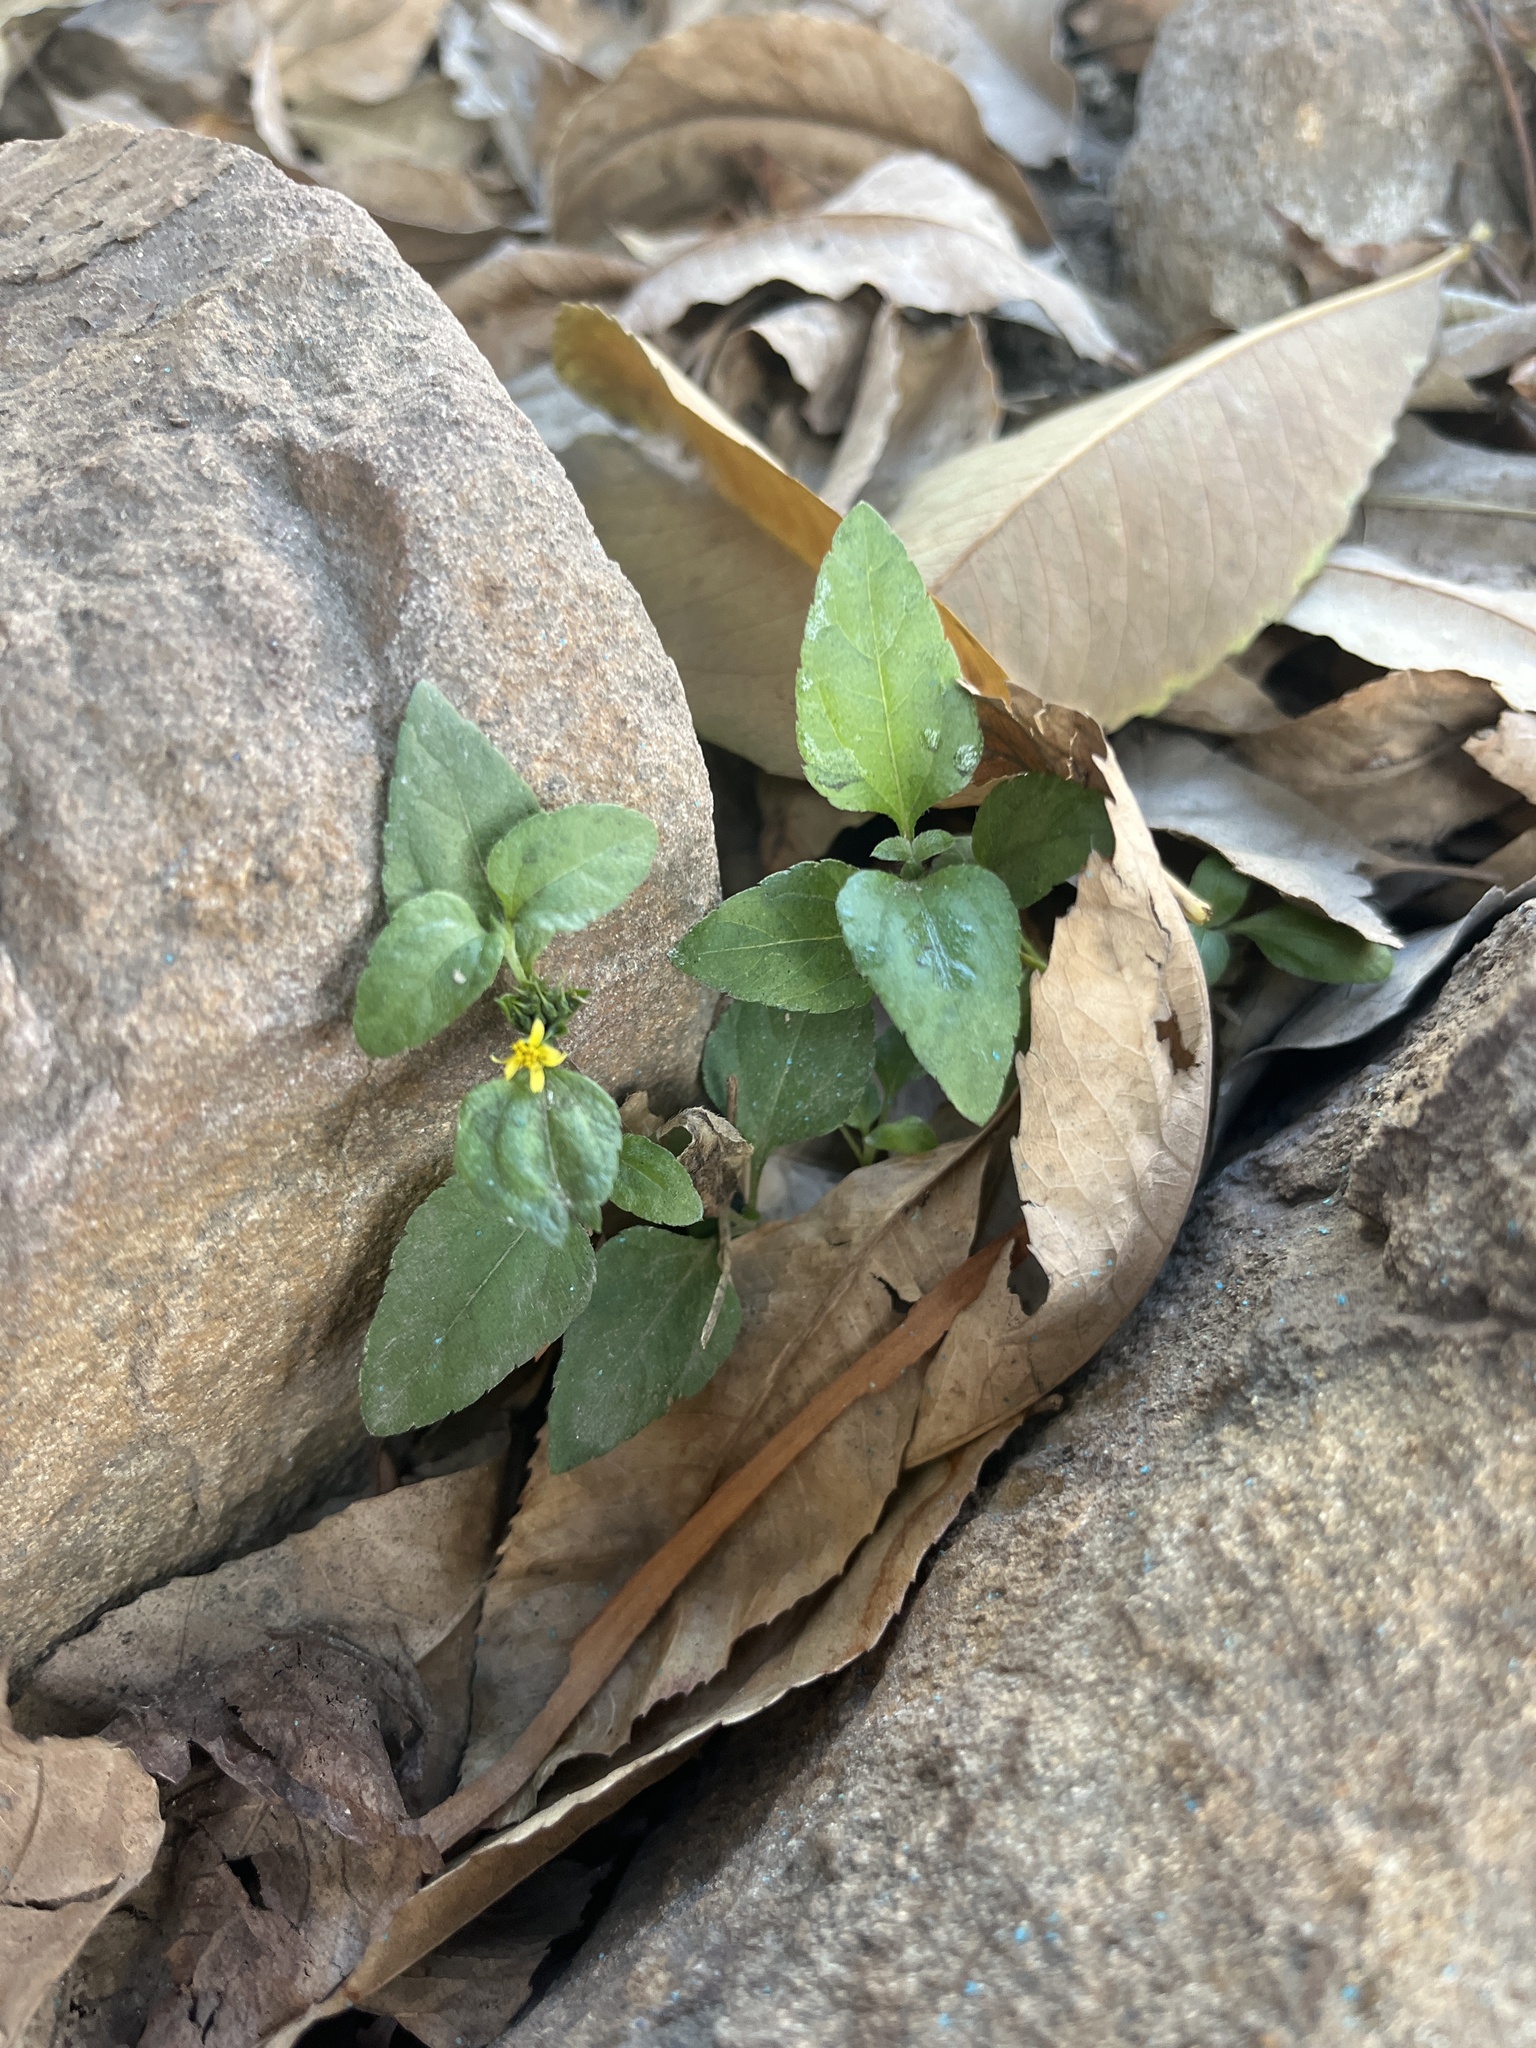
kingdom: Plantae
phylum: Tracheophyta
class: Magnoliopsida
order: Asterales
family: Asteraceae
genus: Calyptocarpus
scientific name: Calyptocarpus vialis
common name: Straggler daisy
